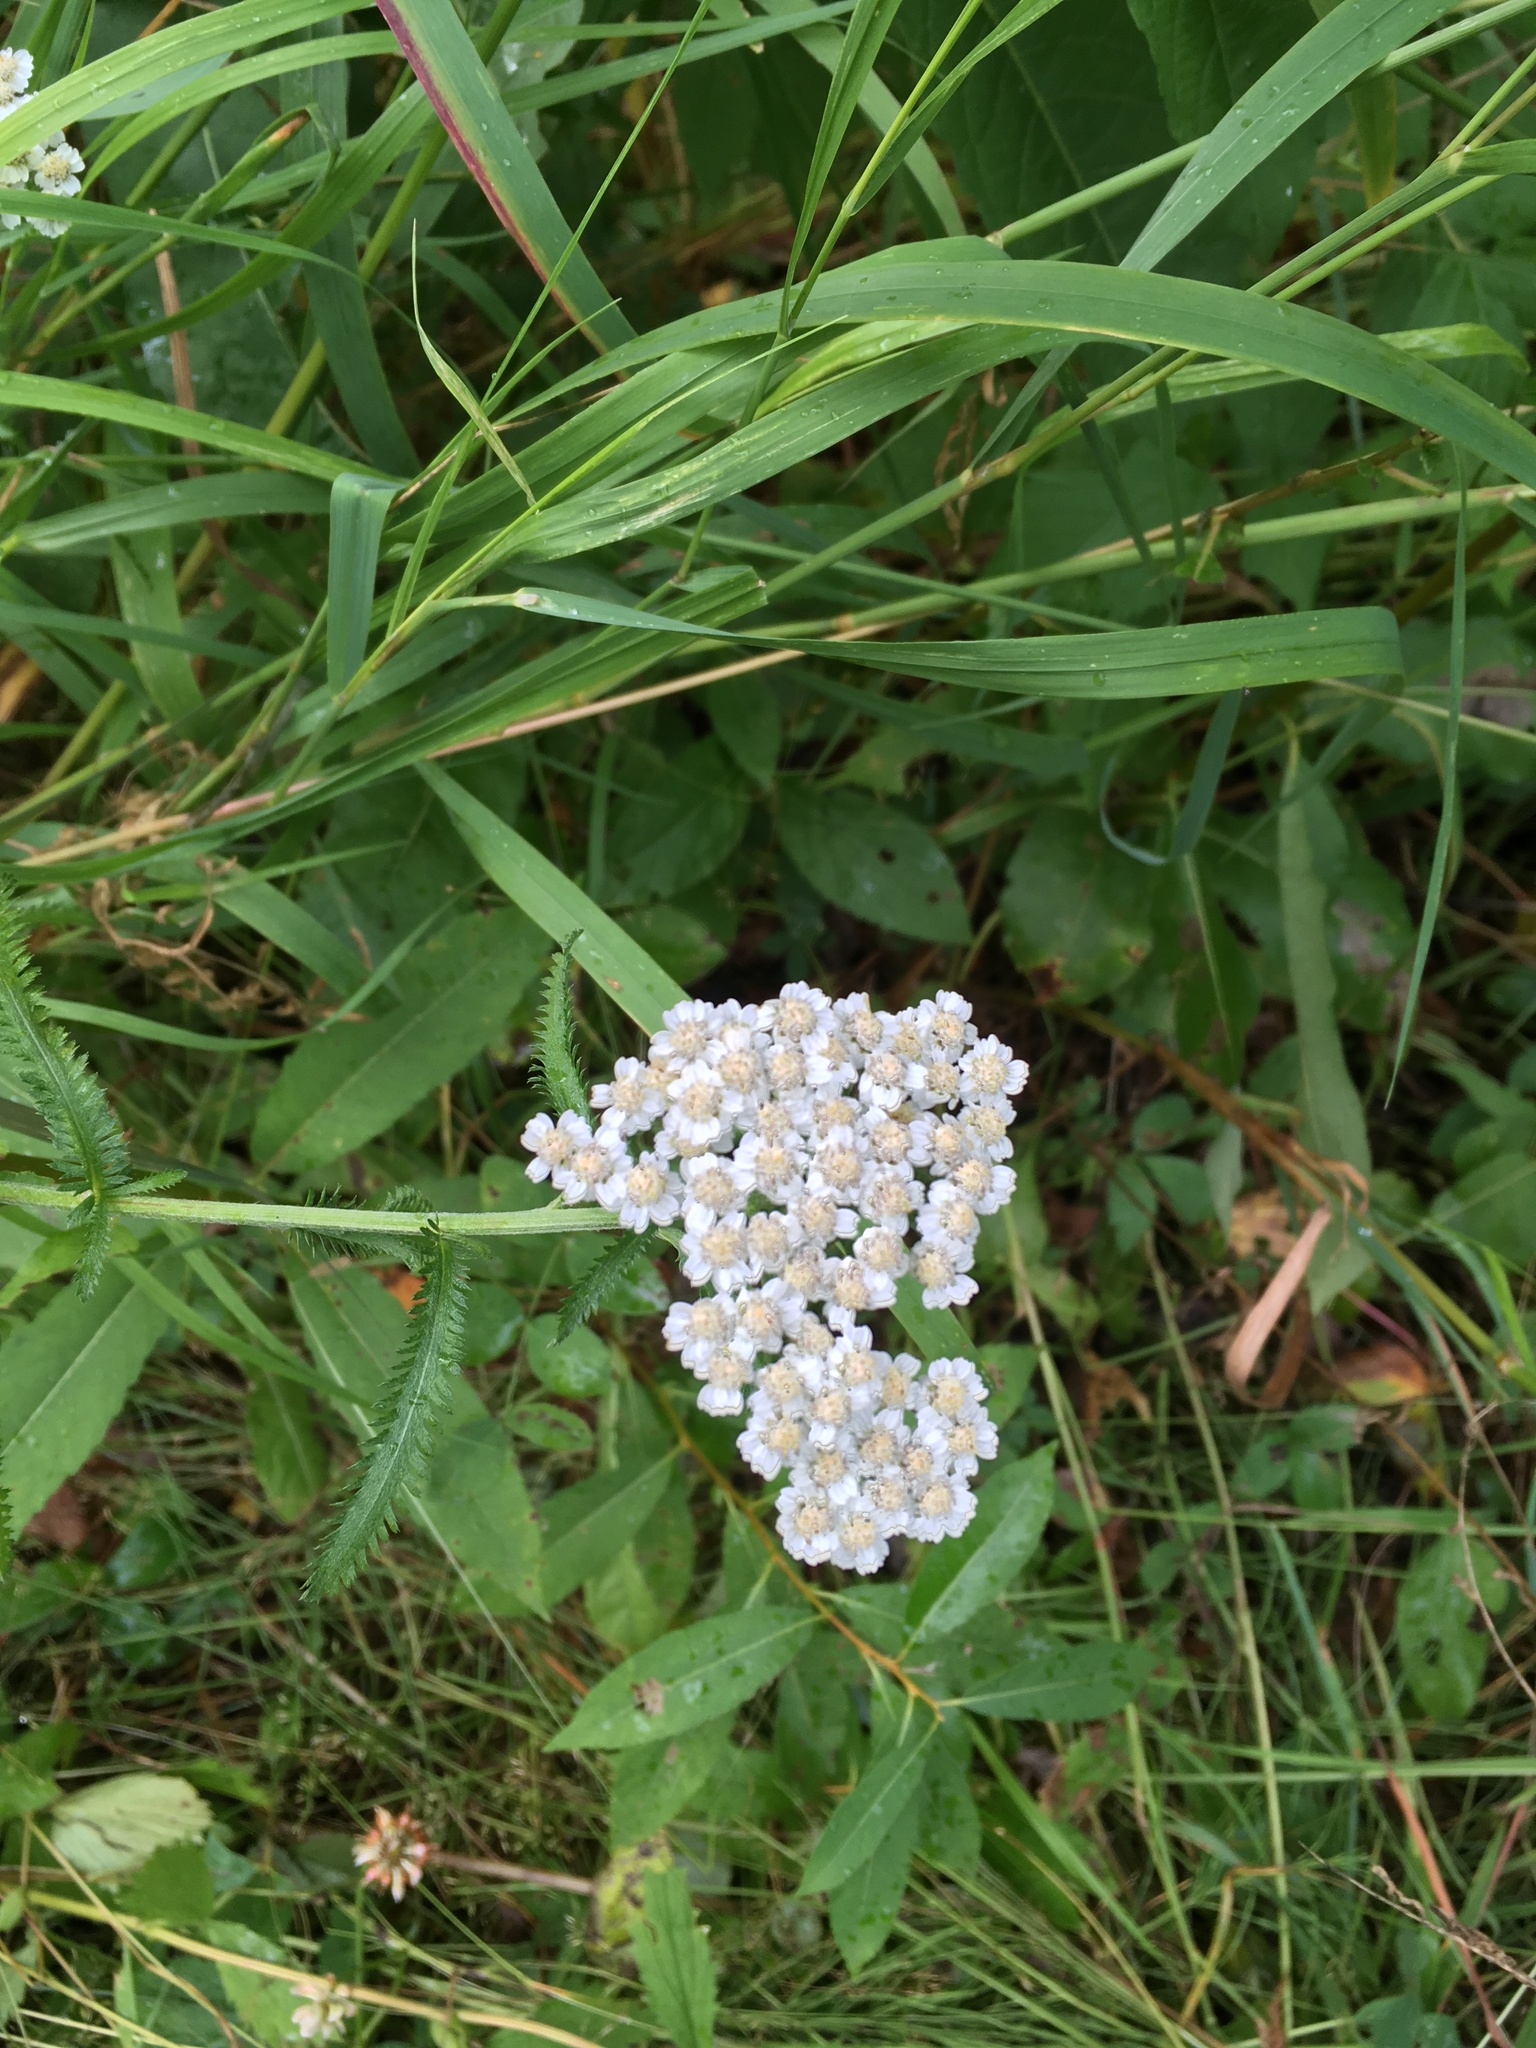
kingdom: Plantae
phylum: Tracheophyta
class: Magnoliopsida
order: Asterales
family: Asteraceae
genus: Achillea
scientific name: Achillea millefolium
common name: Yarrow
